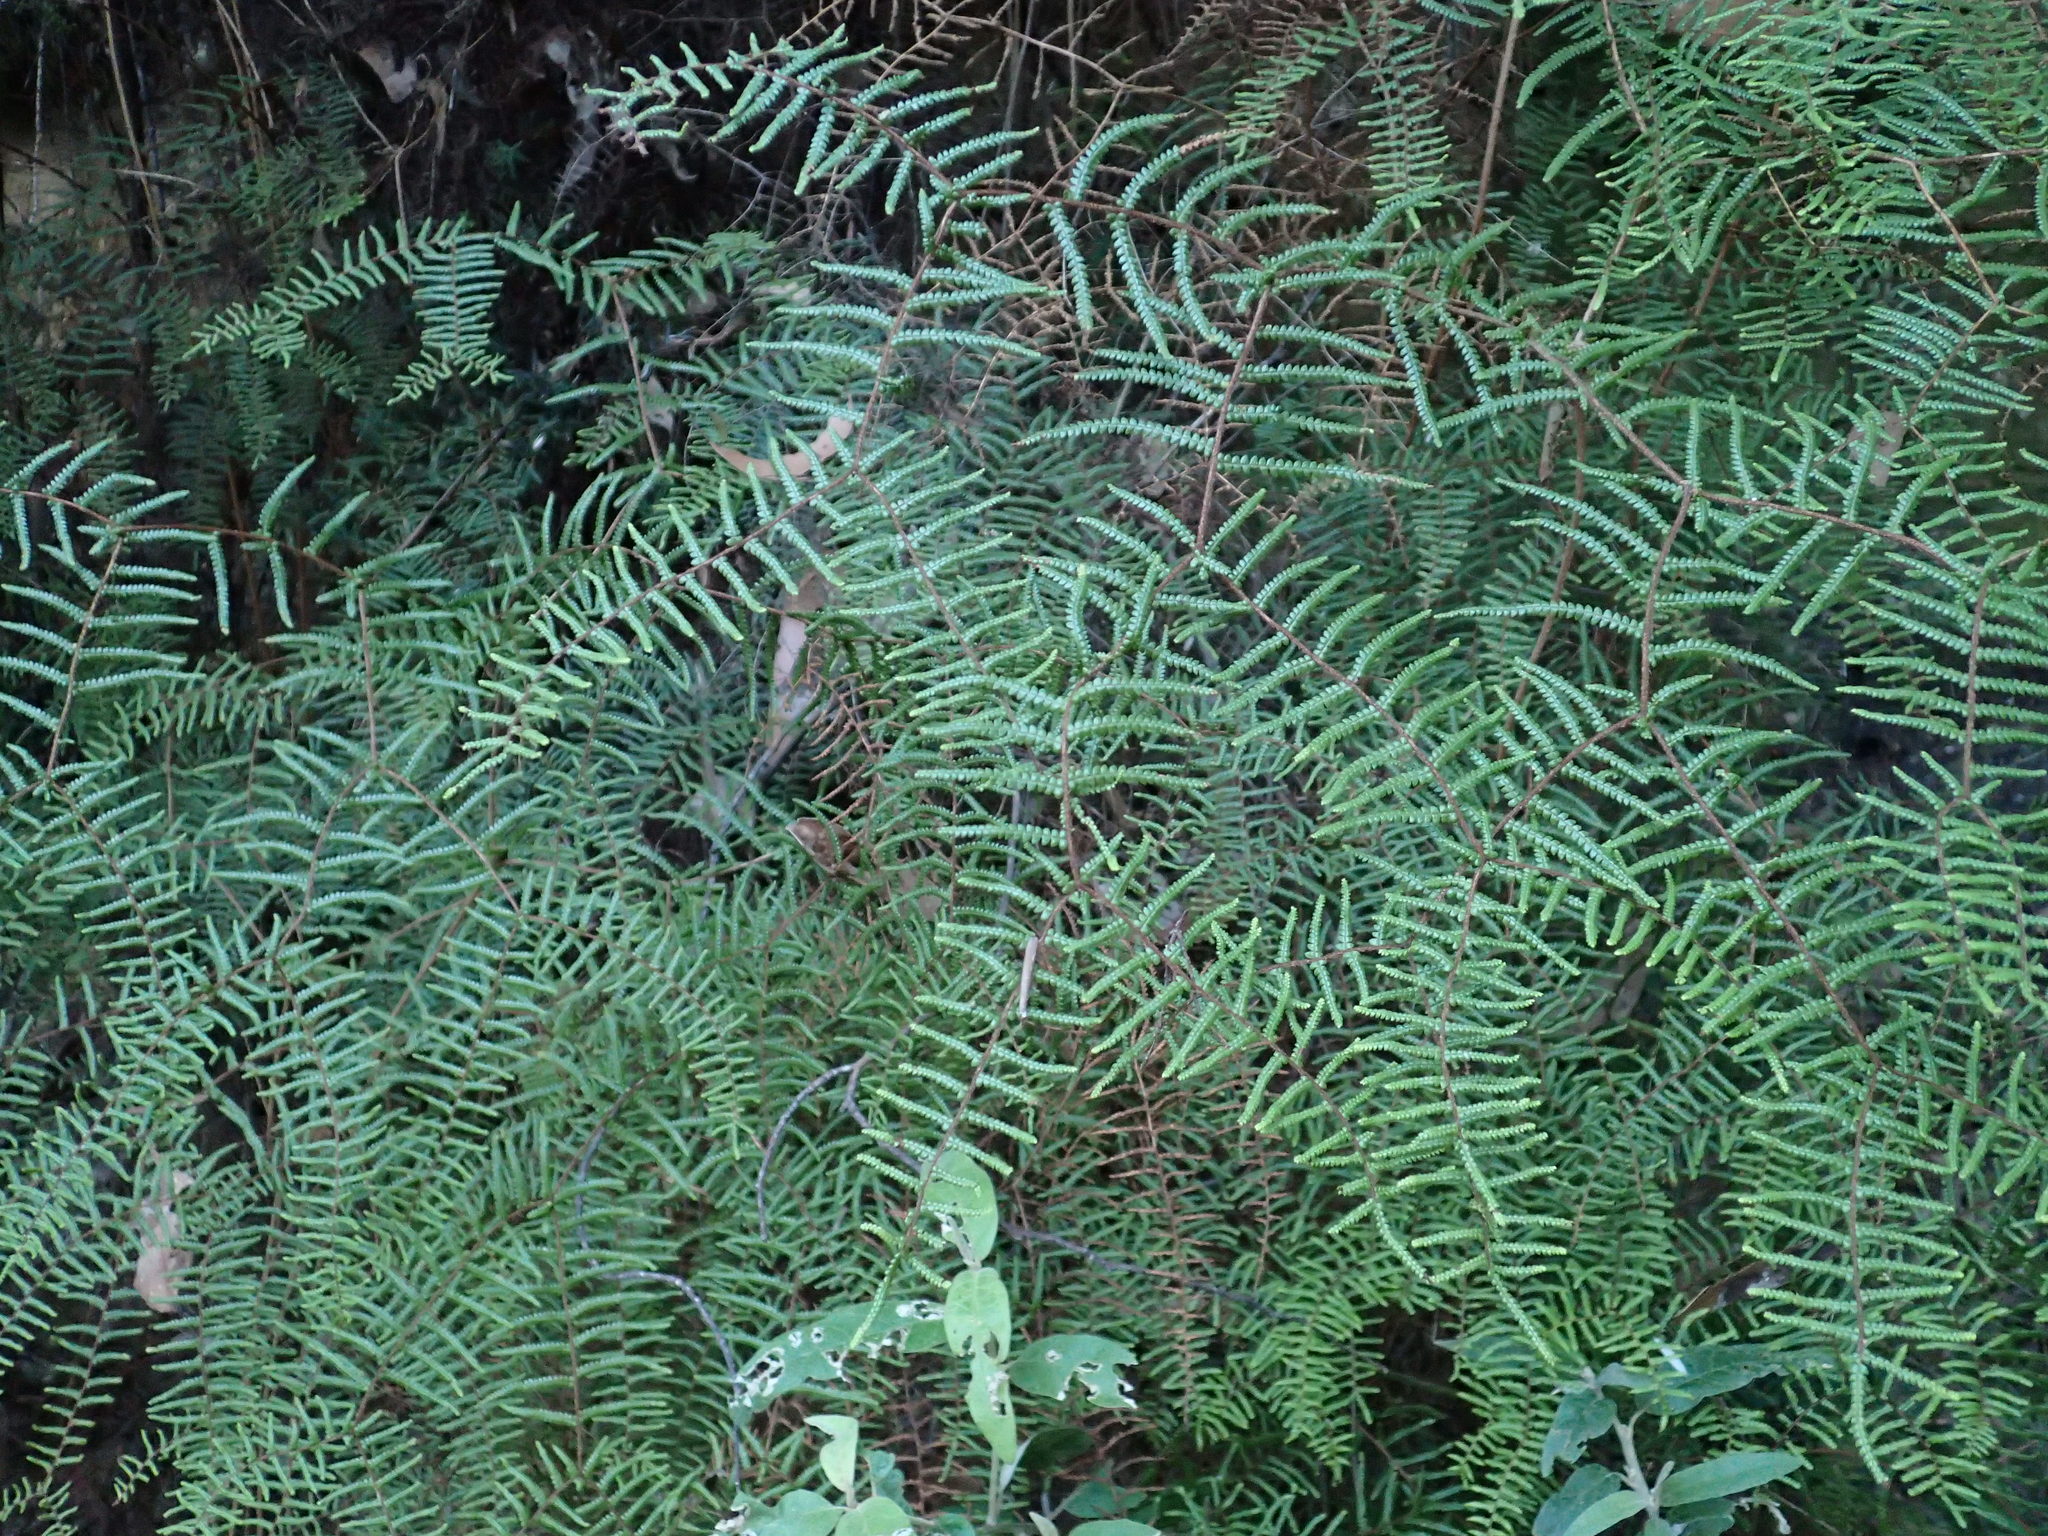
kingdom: Plantae
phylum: Tracheophyta
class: Polypodiopsida
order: Gleicheniales
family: Gleicheniaceae
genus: Gleichenia
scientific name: Gleichenia microphylla
